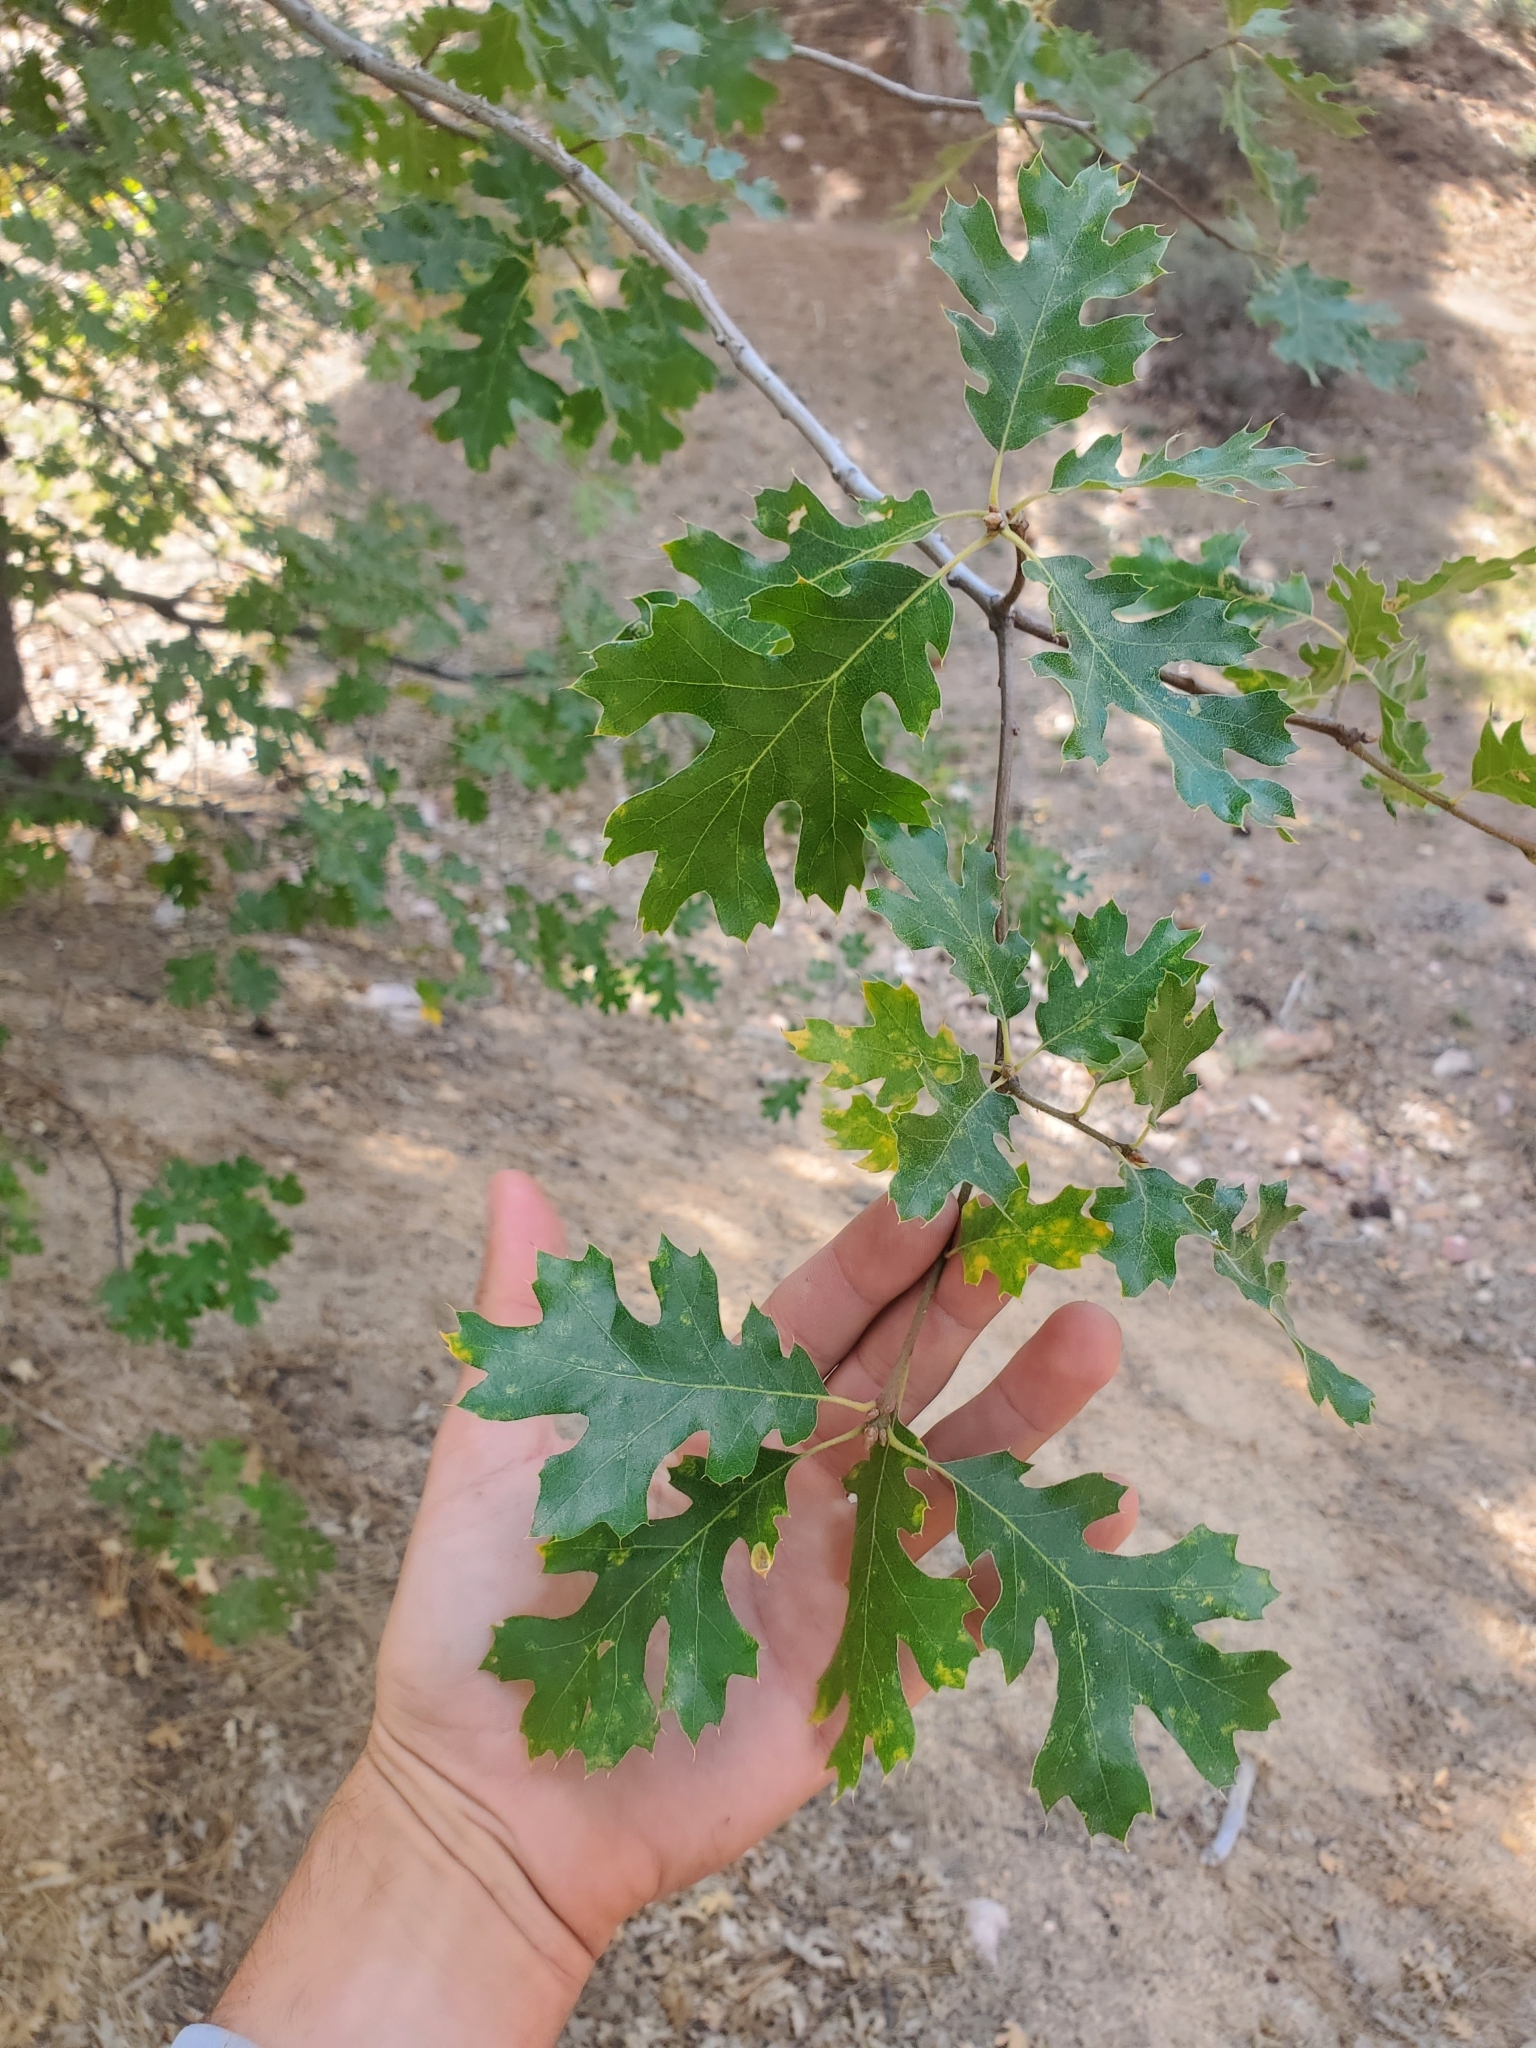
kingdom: Plantae
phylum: Tracheophyta
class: Magnoliopsida
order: Fagales
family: Fagaceae
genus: Quercus
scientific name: Quercus kelloggii
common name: California black oak
